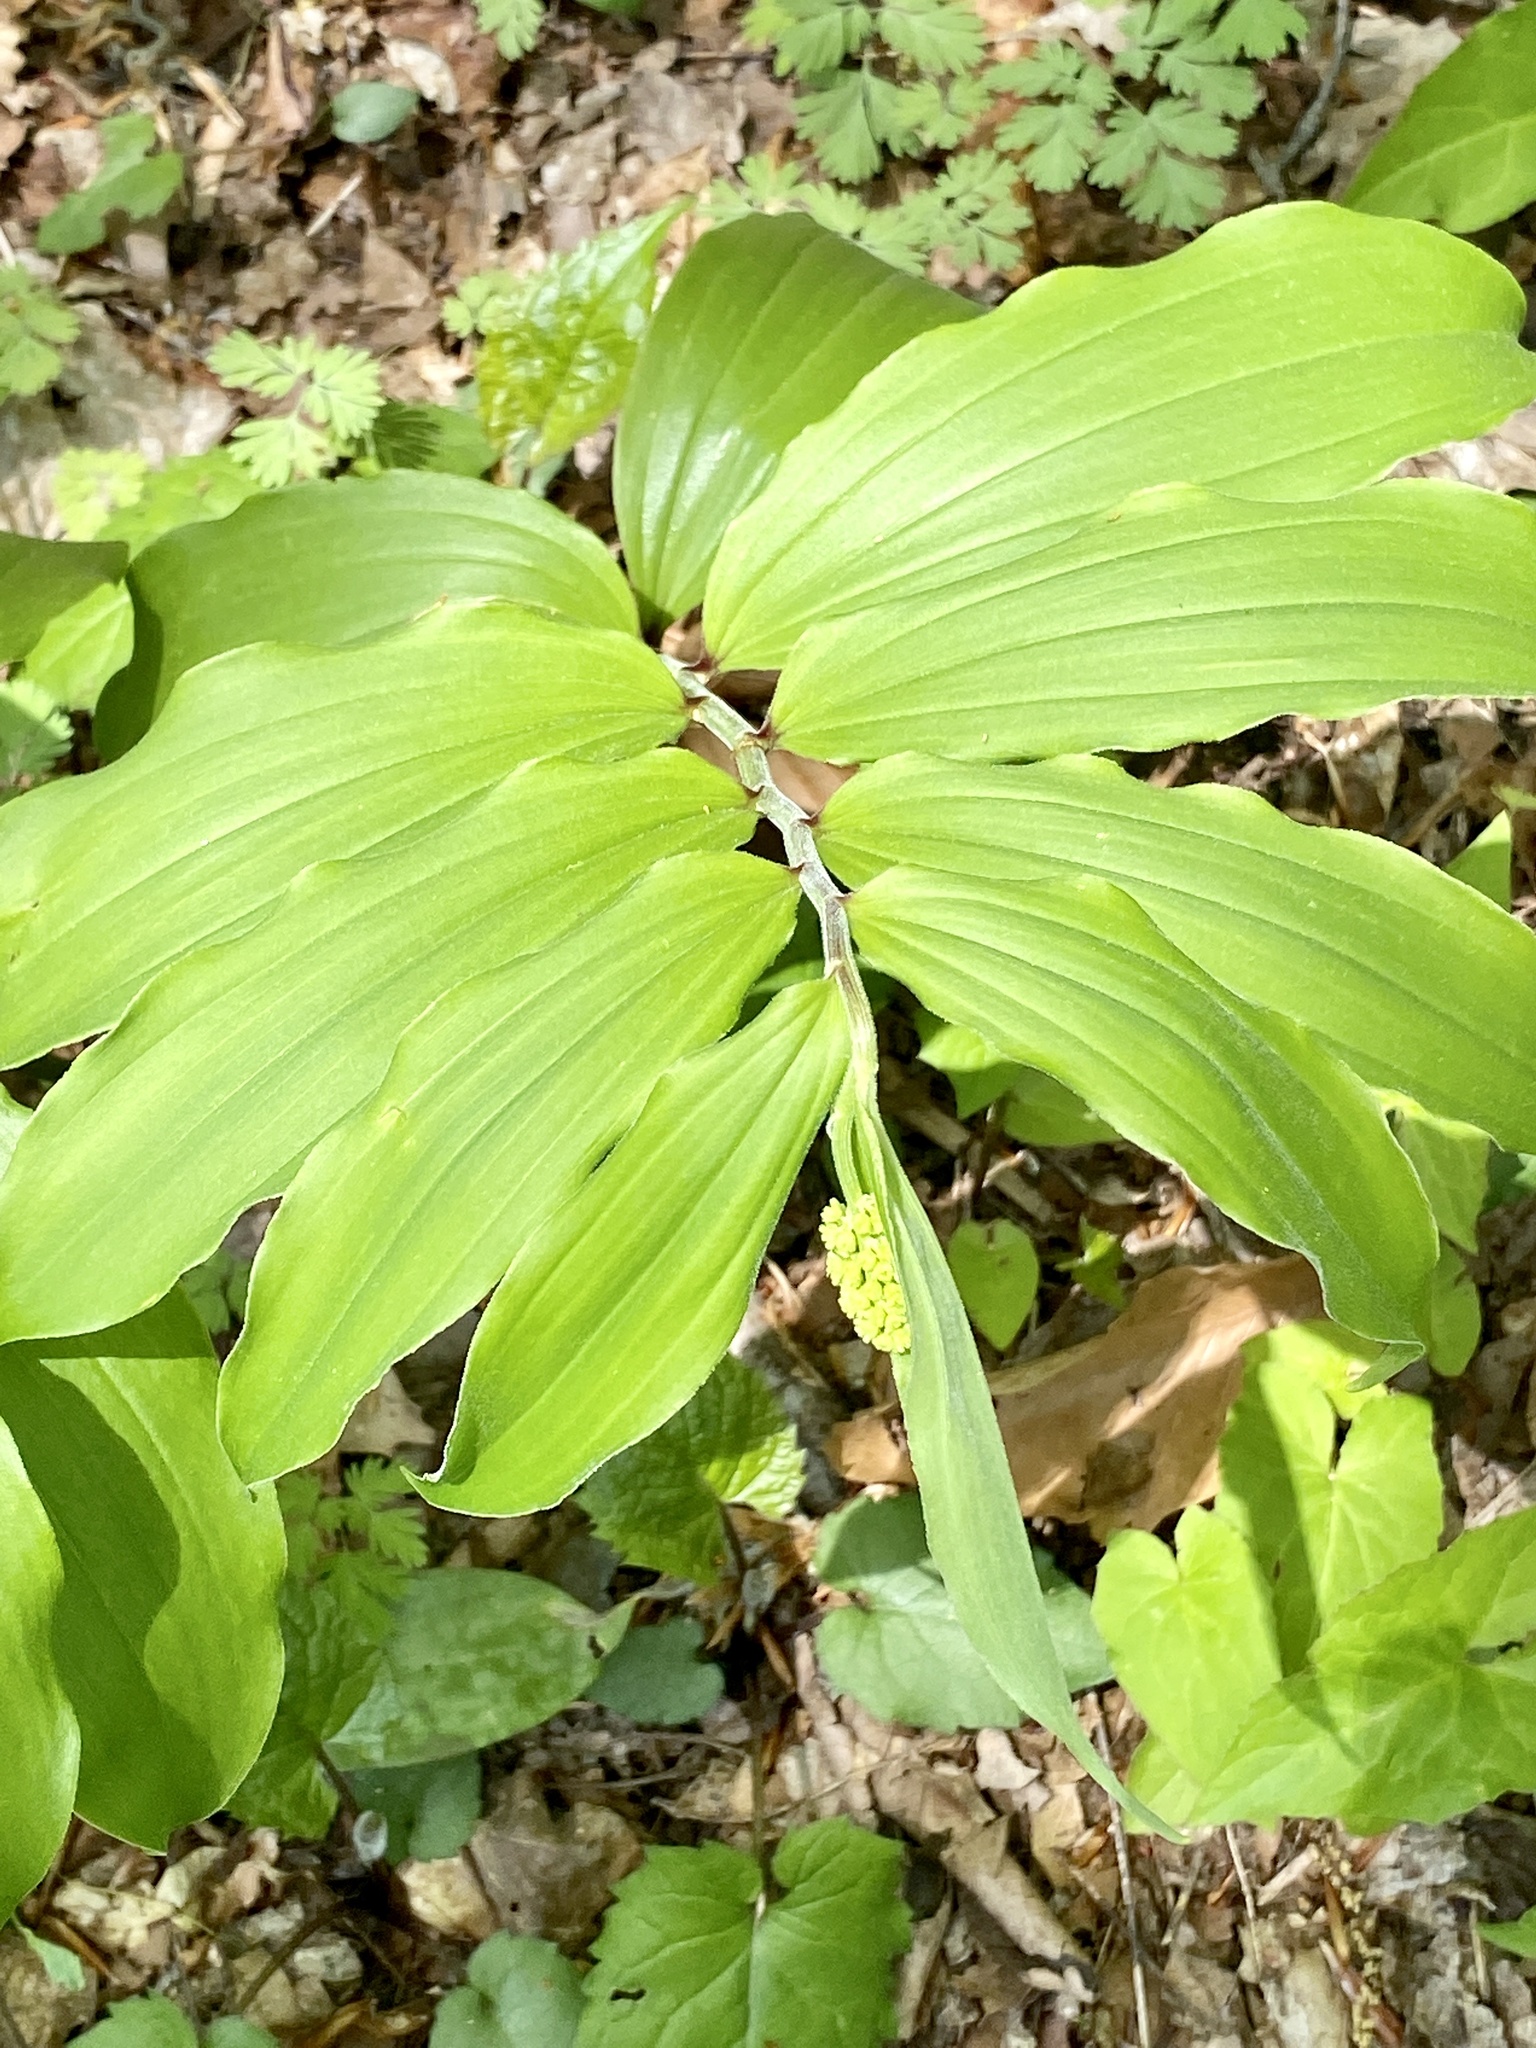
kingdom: Plantae
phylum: Tracheophyta
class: Liliopsida
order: Asparagales
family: Asparagaceae
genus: Maianthemum
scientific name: Maianthemum racemosum
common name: False spikenard
